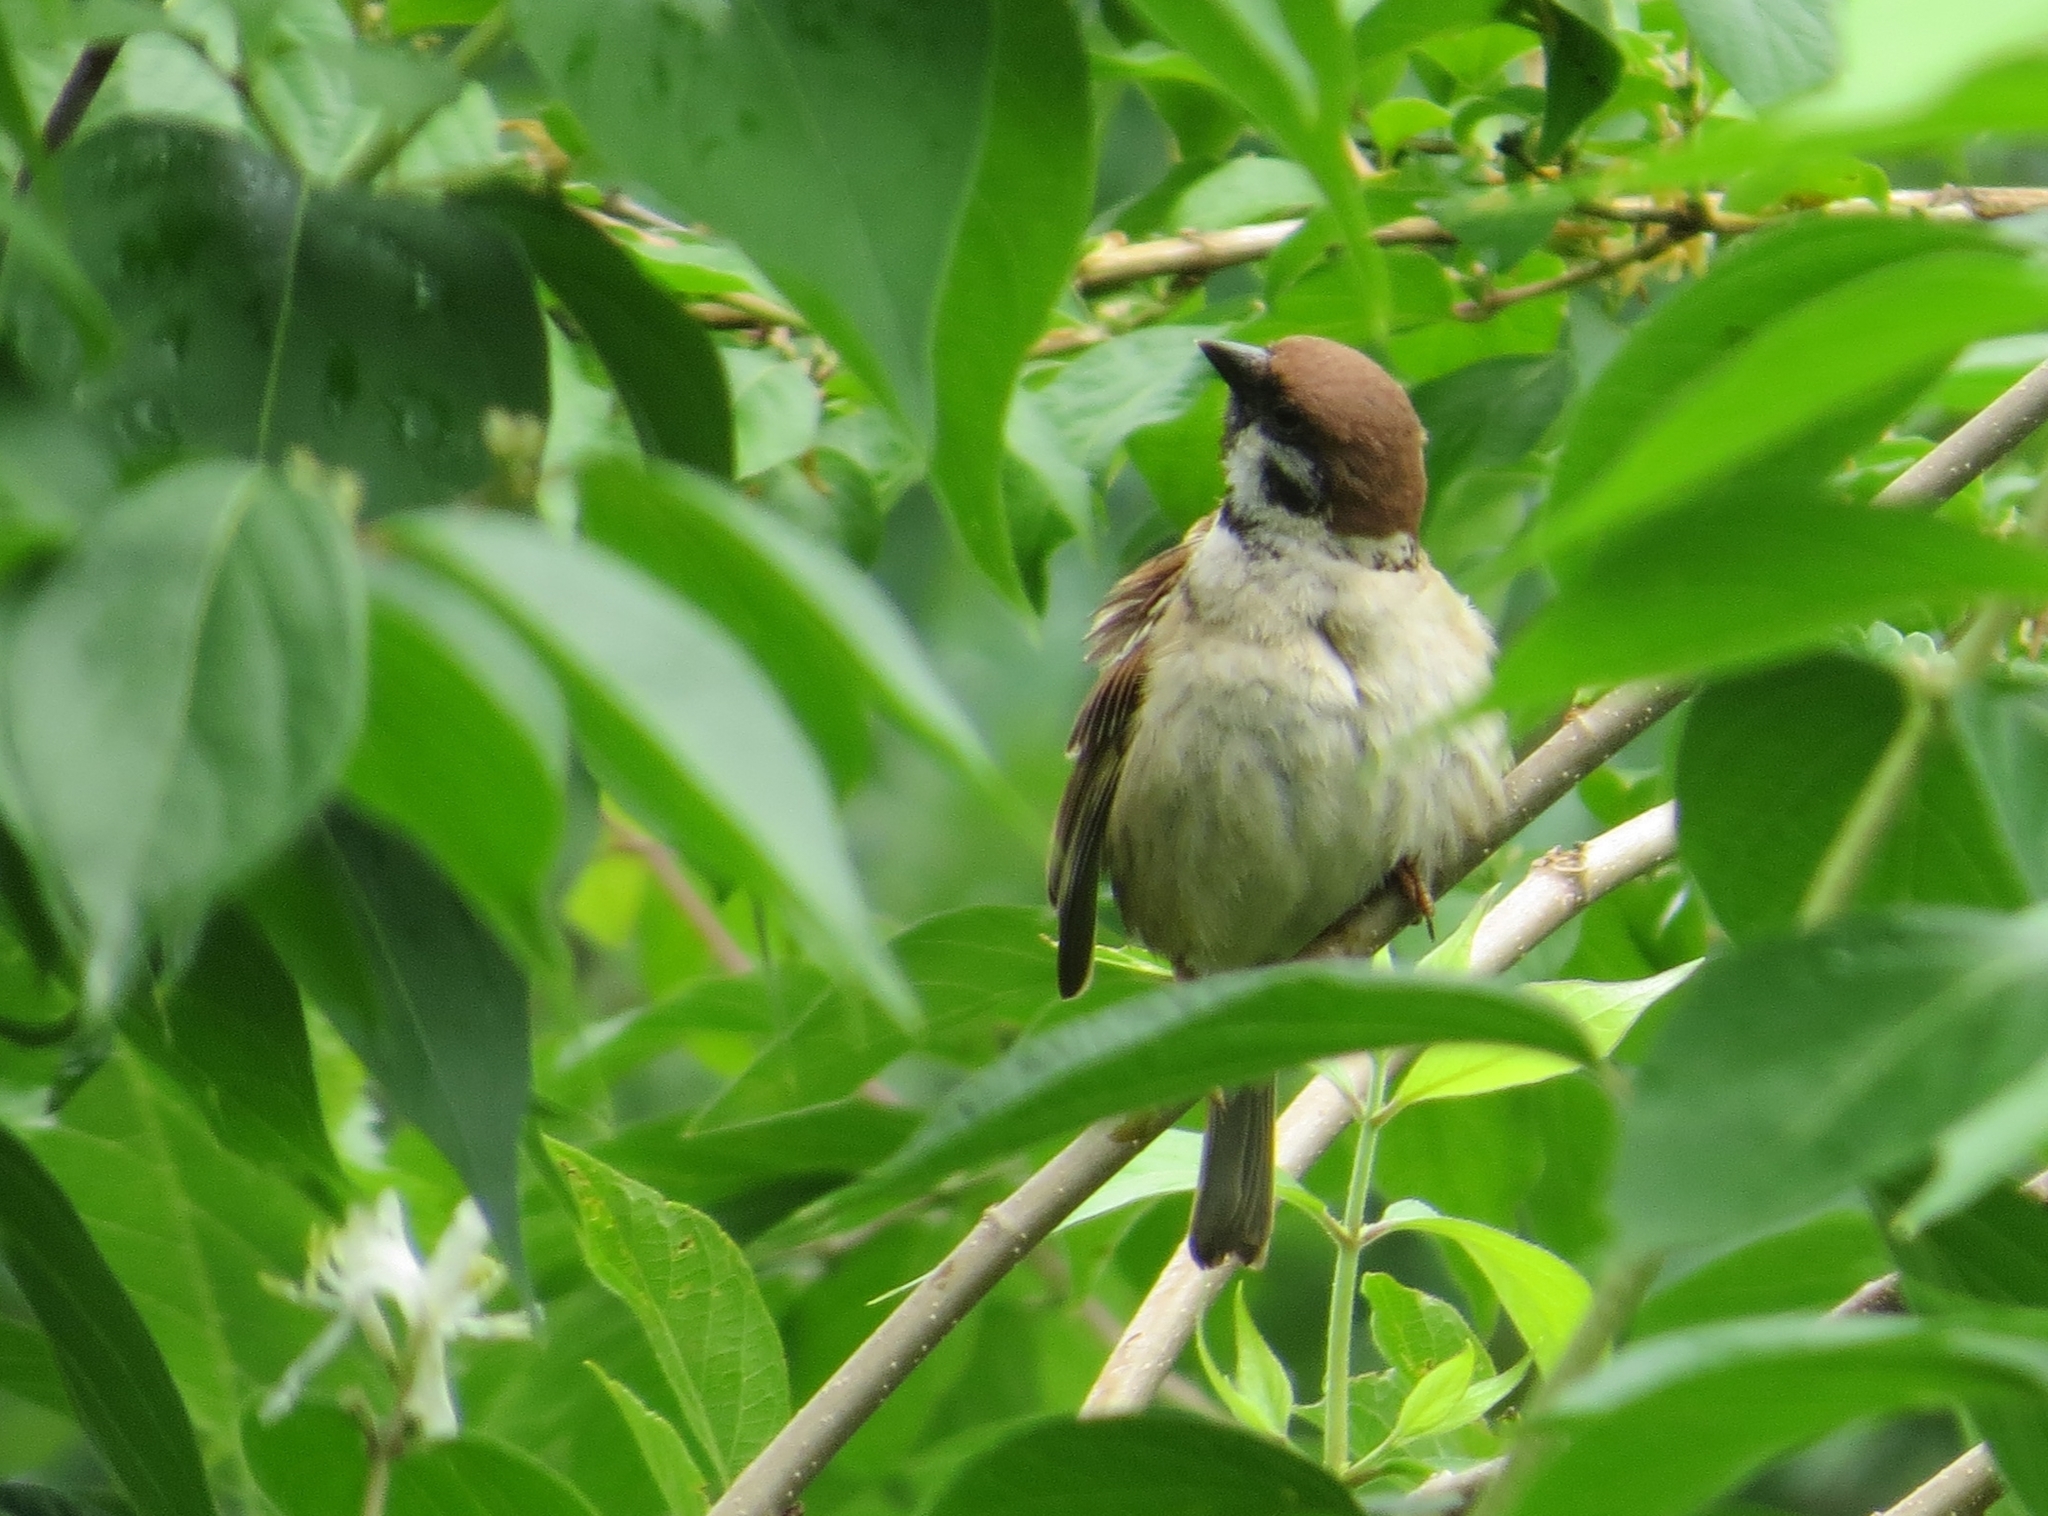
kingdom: Animalia
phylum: Chordata
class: Aves
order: Passeriformes
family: Passeridae
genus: Passer
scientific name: Passer montanus
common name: Eurasian tree sparrow
